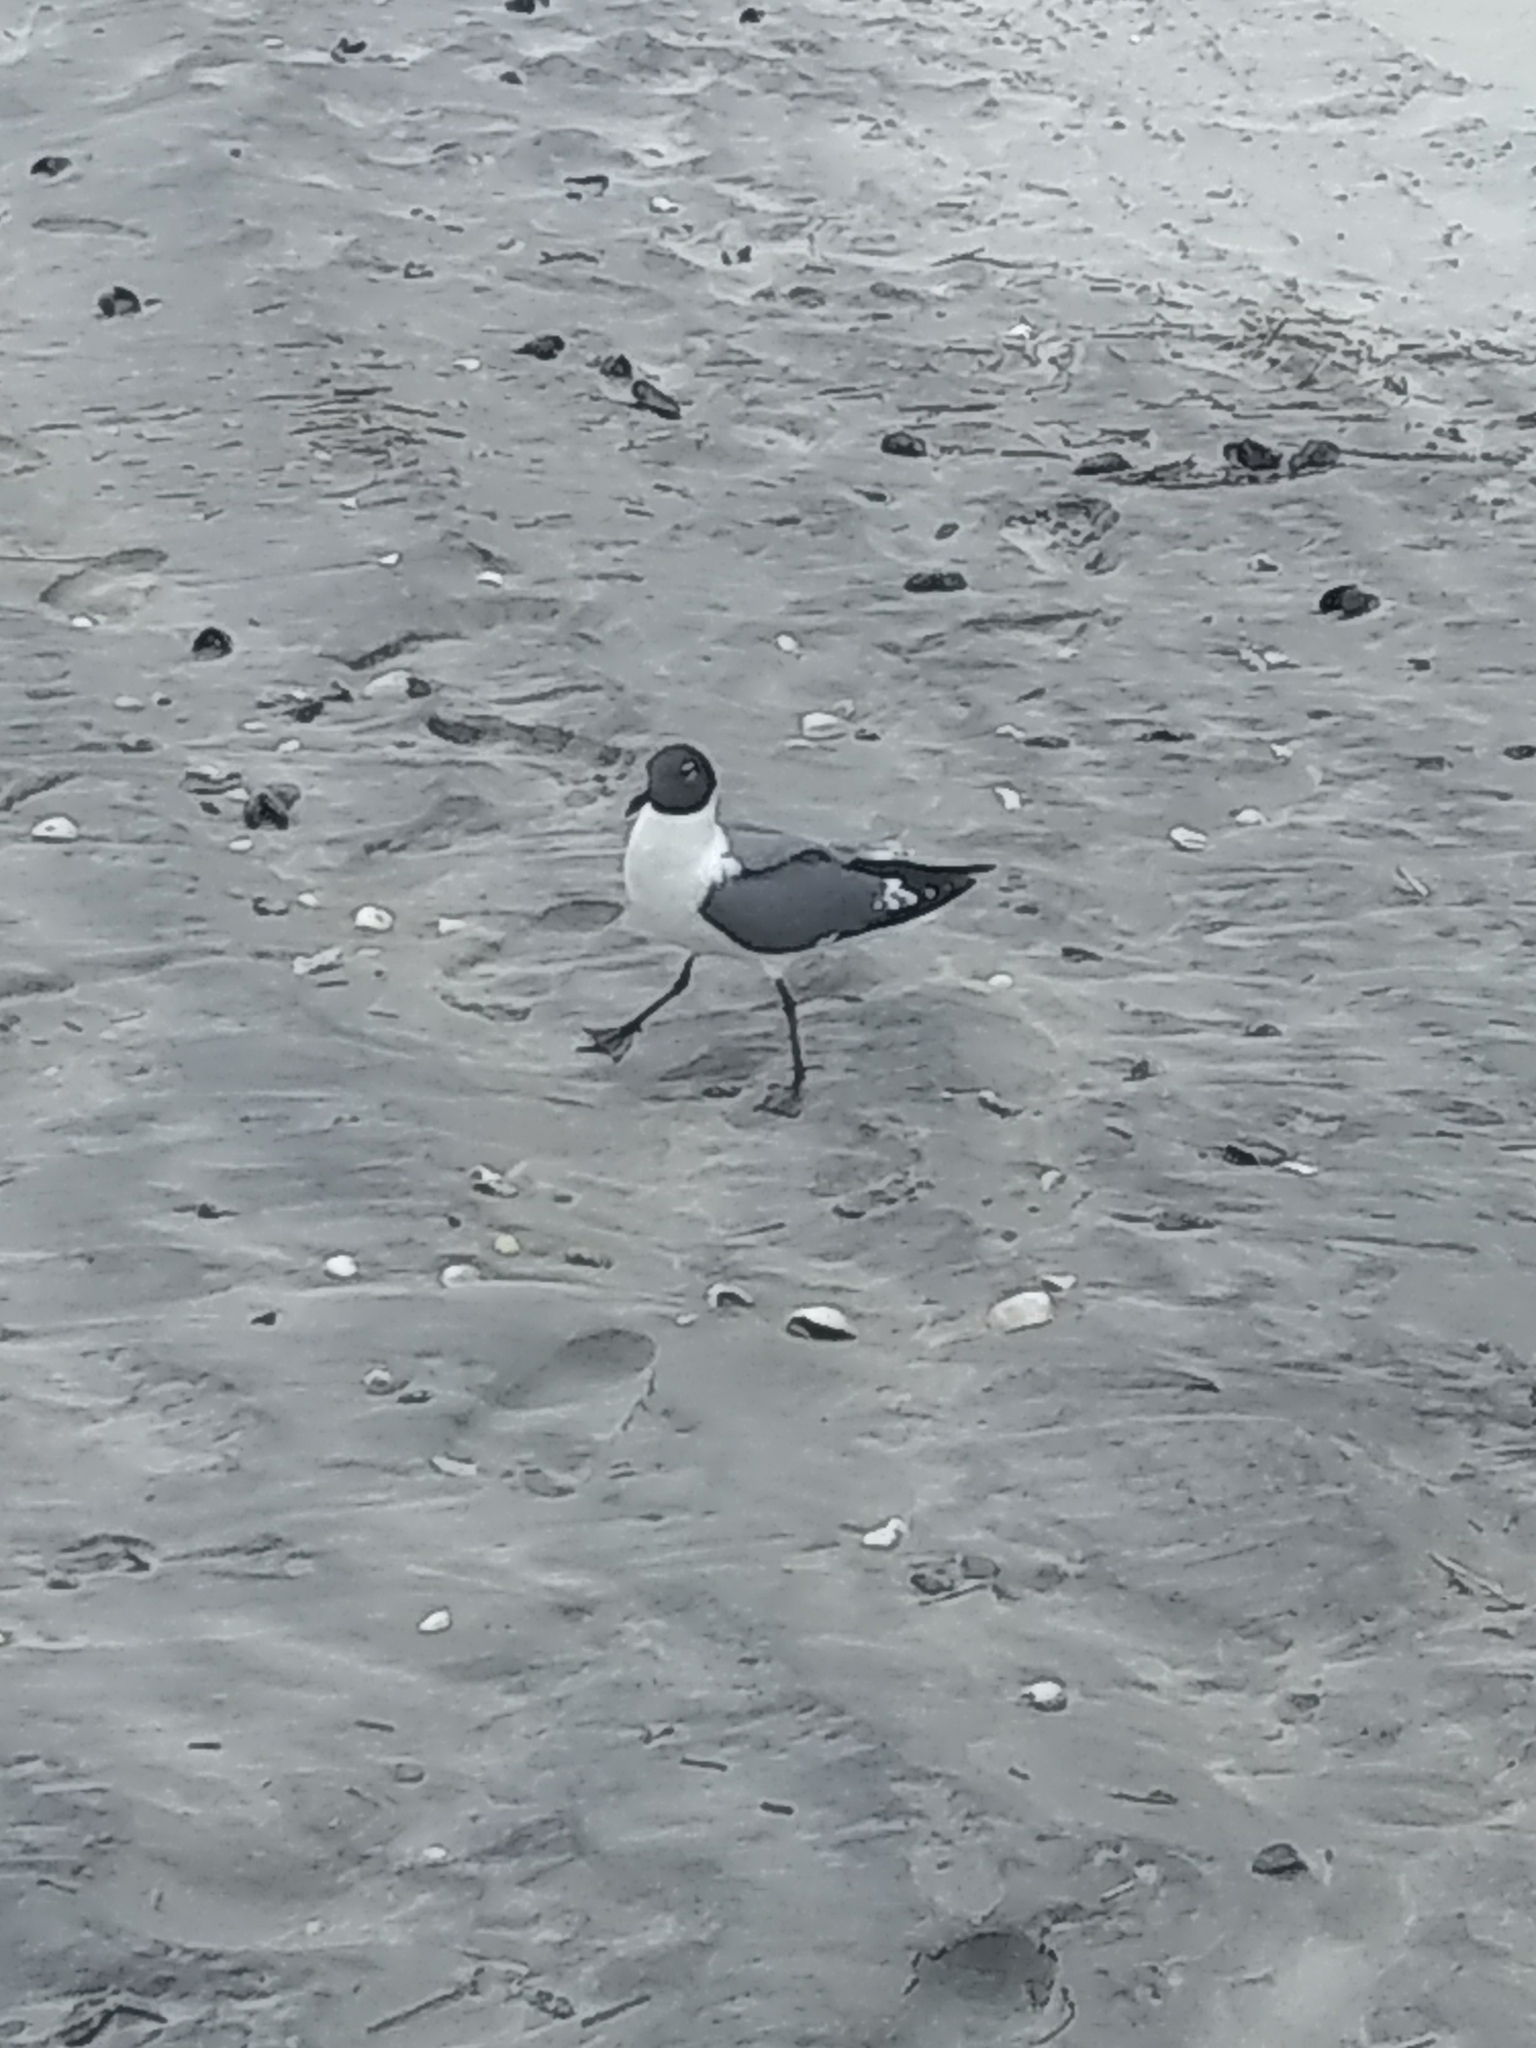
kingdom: Animalia
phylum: Chordata
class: Aves
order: Charadriiformes
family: Laridae
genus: Leucophaeus
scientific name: Leucophaeus atricilla
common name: Laughing gull
